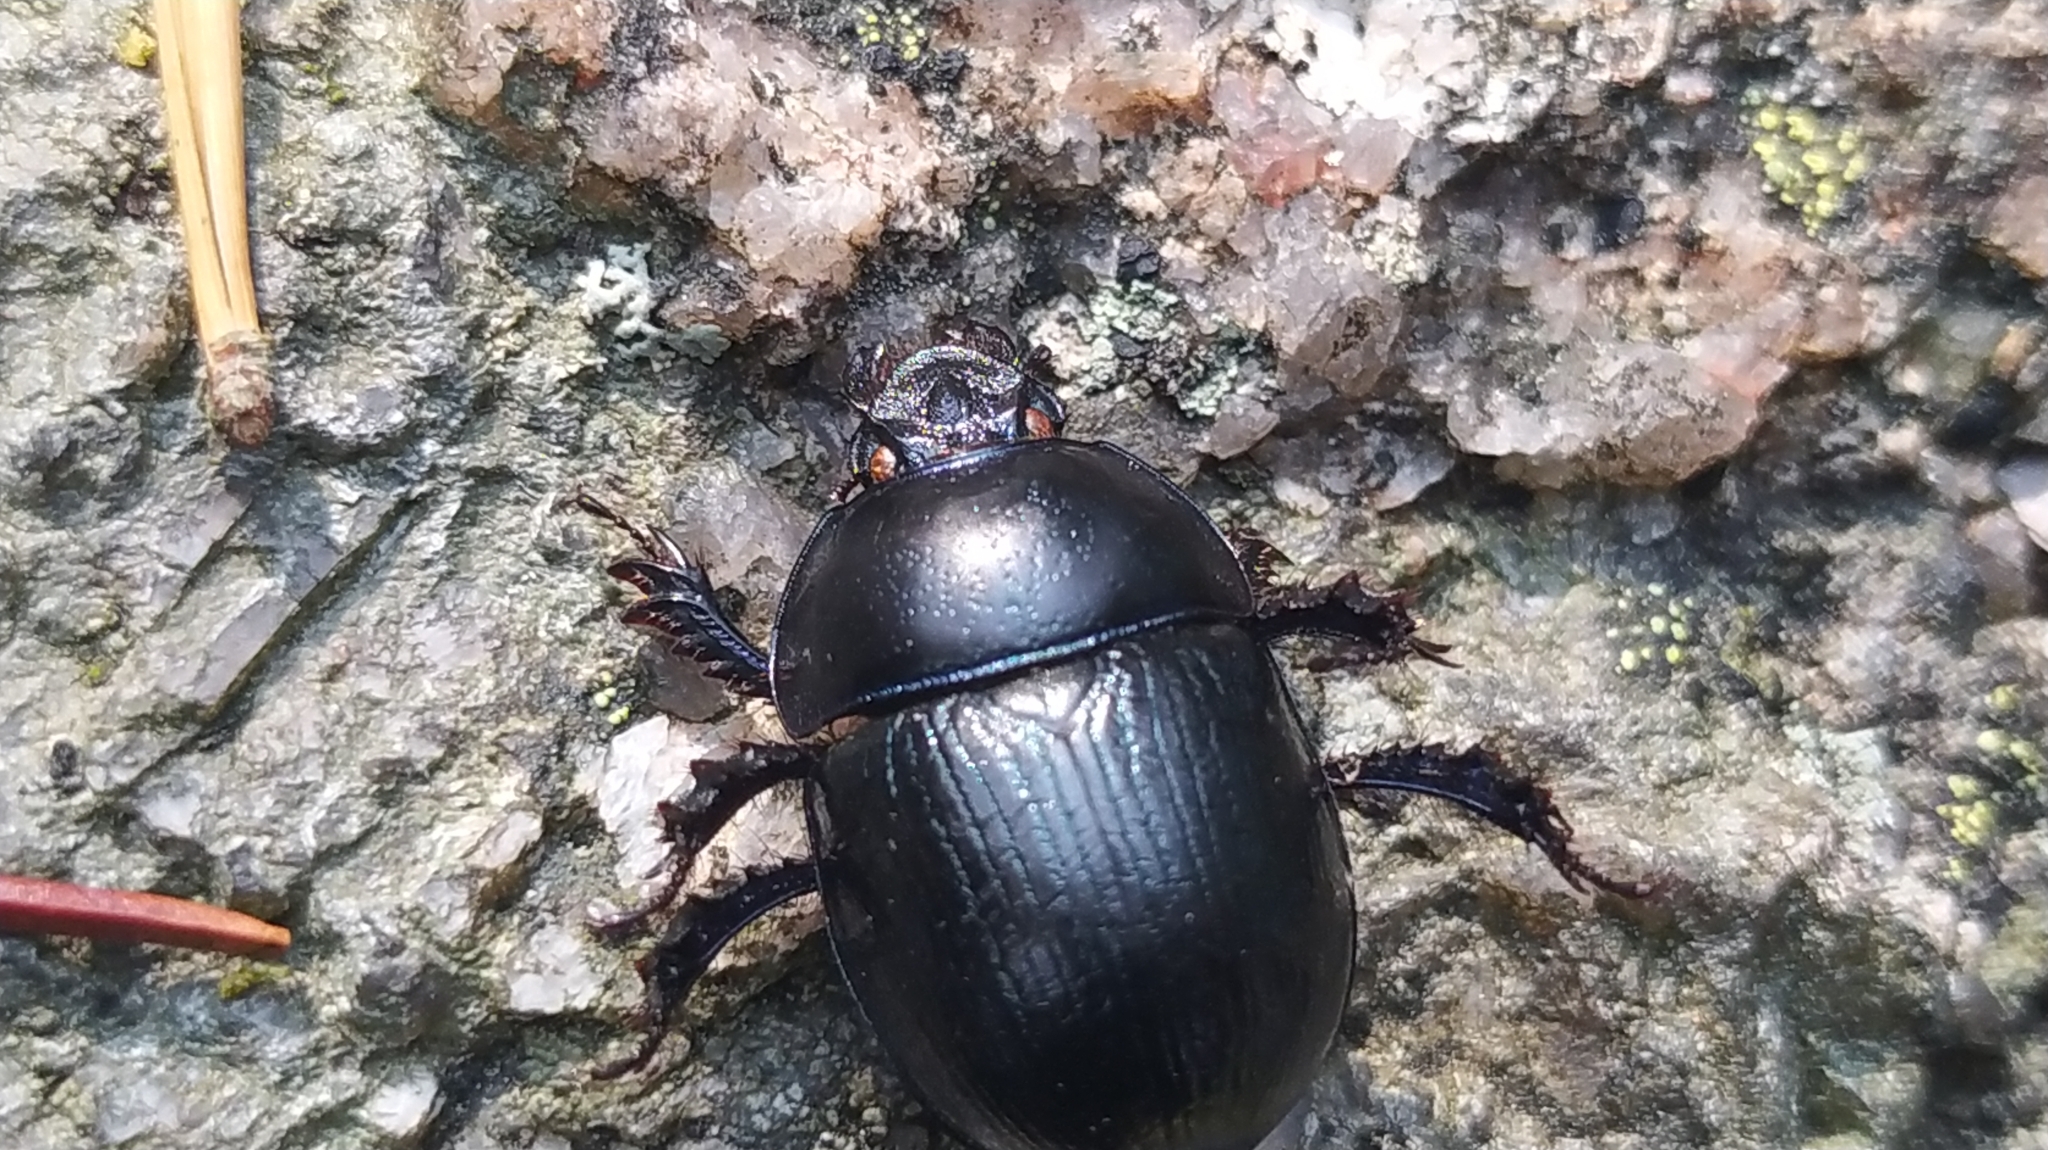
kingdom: Animalia
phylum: Arthropoda
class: Insecta
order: Coleoptera
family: Geotrupidae
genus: Anoplotrupes
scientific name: Anoplotrupes stercorosus
